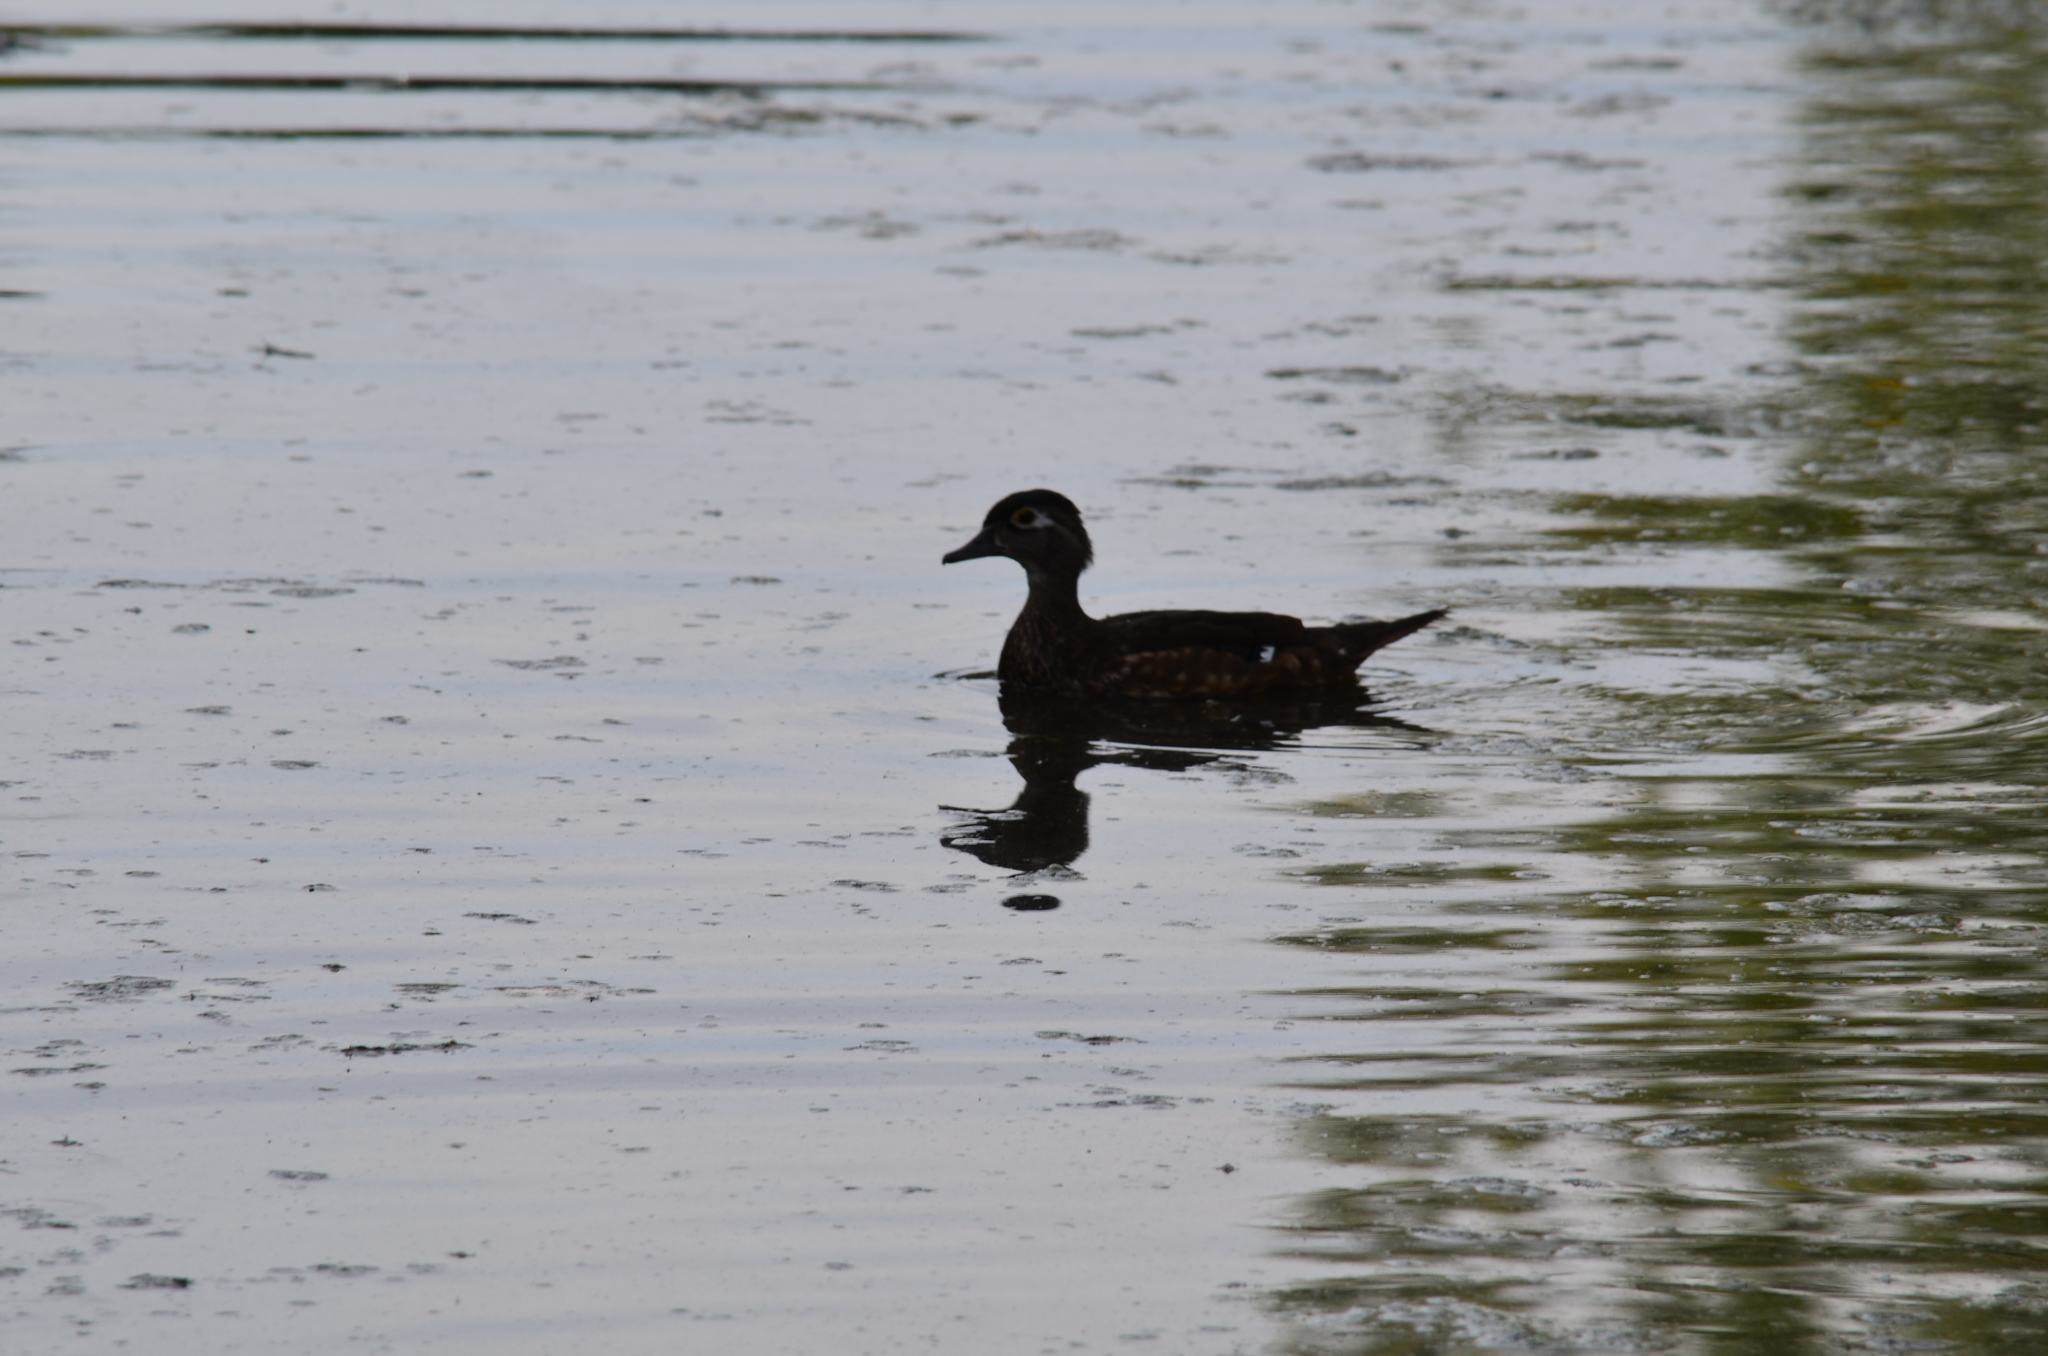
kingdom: Animalia
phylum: Chordata
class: Aves
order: Anseriformes
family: Anatidae
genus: Aix
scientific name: Aix sponsa
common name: Wood duck
